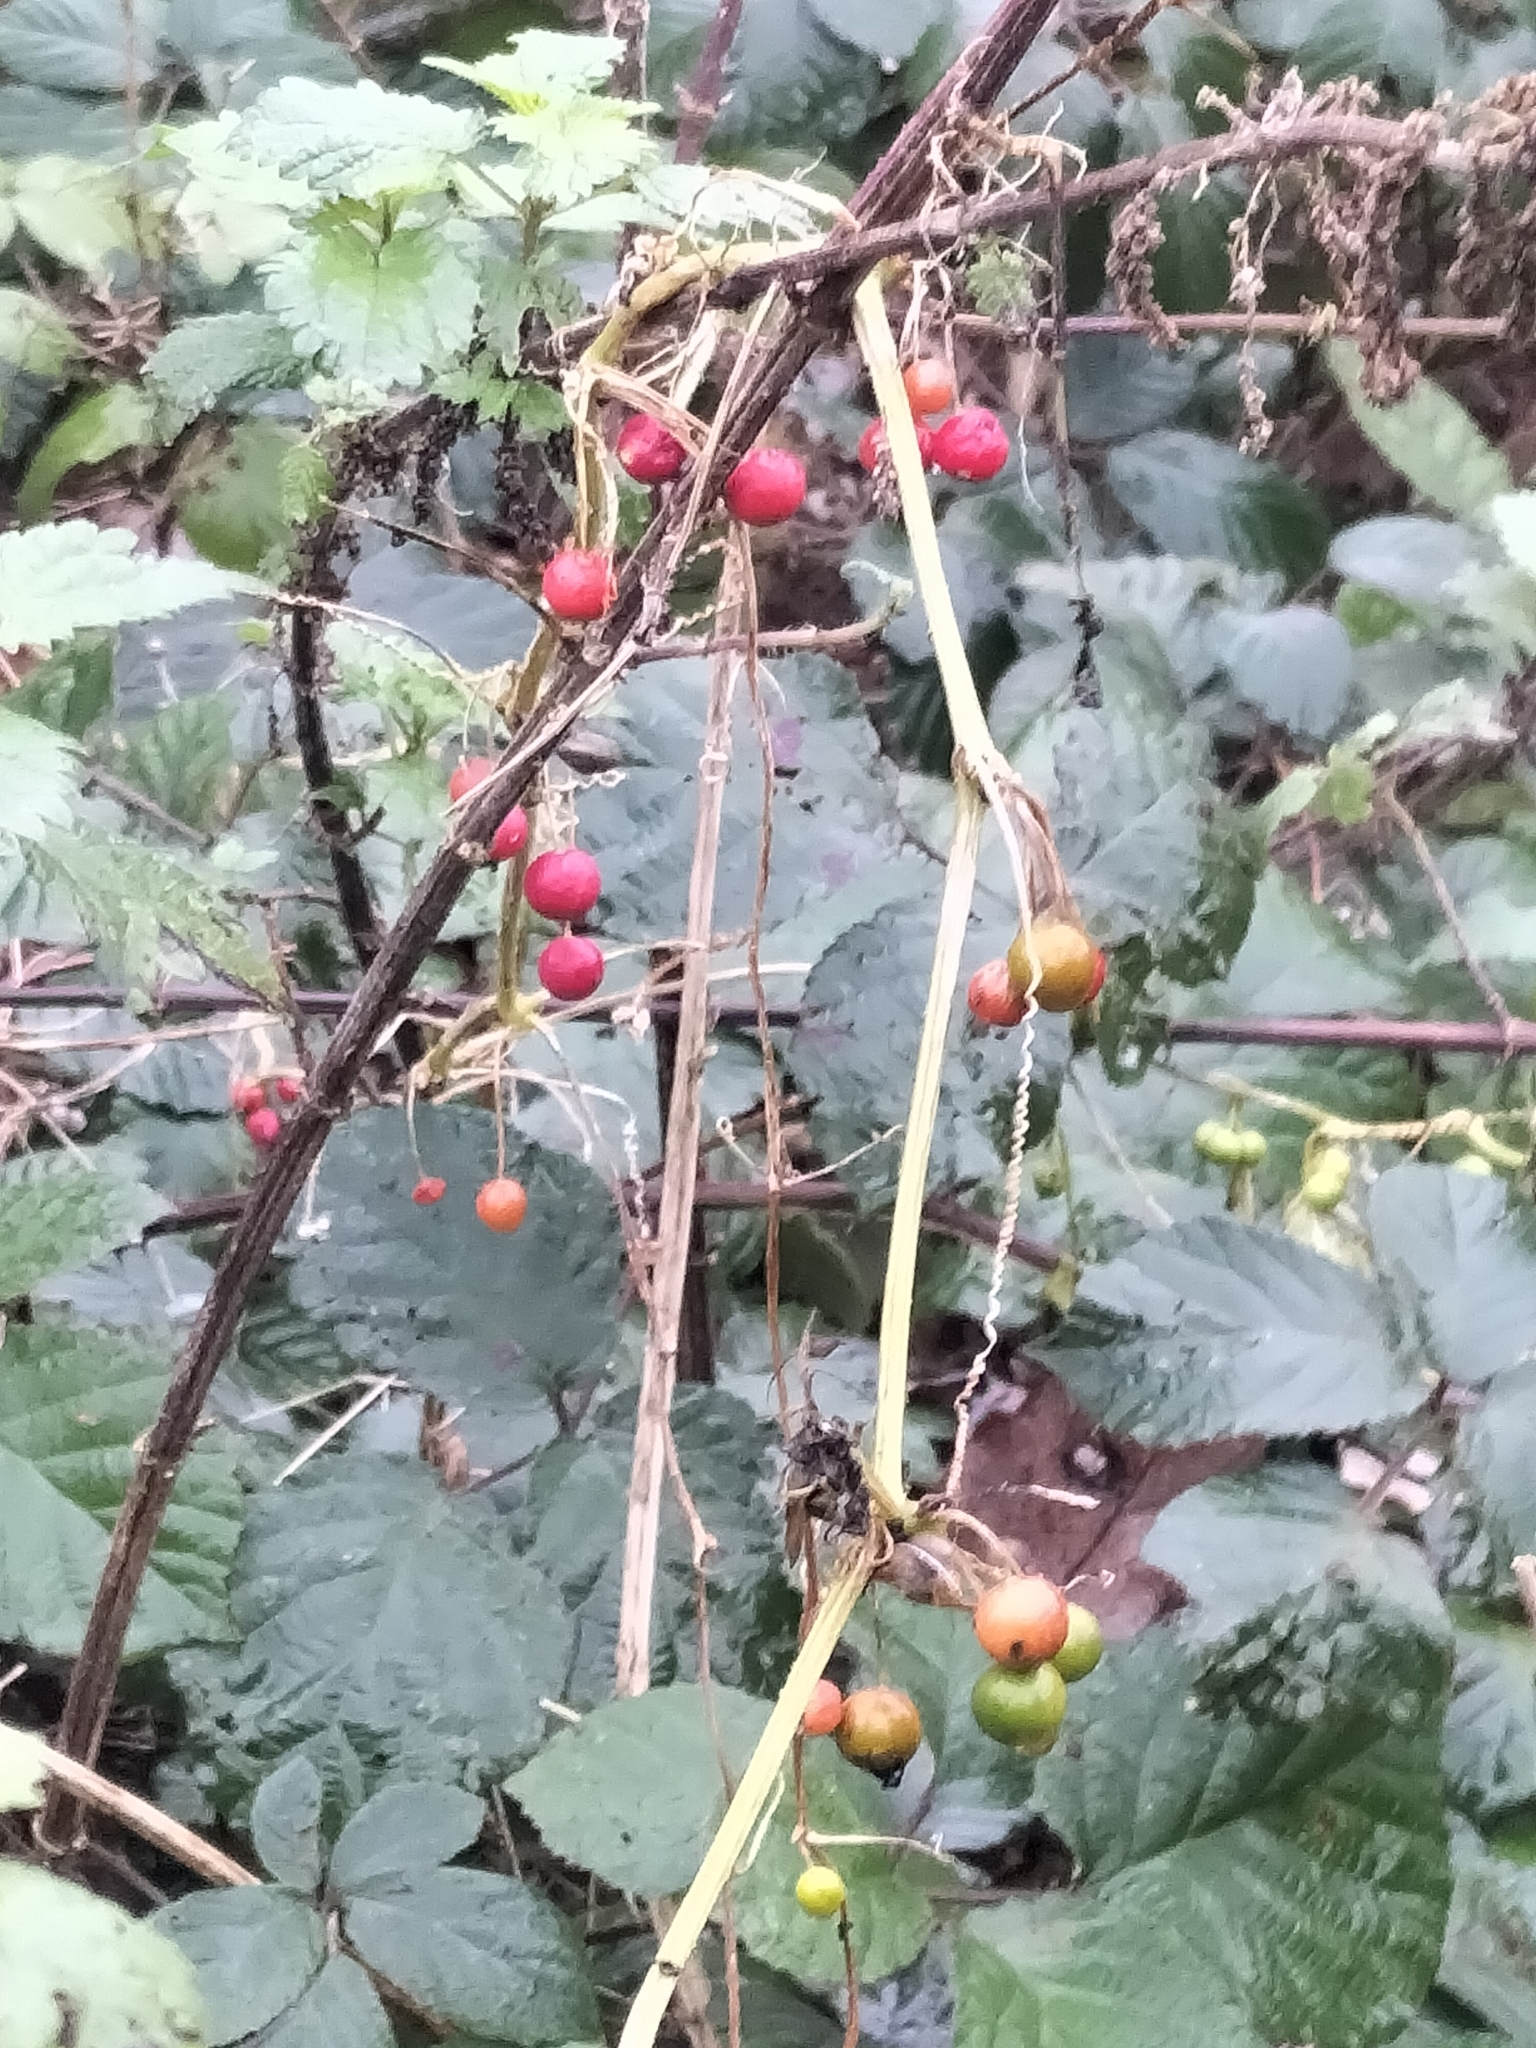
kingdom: Plantae
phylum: Tracheophyta
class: Liliopsida
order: Dioscoreales
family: Dioscoreaceae
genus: Dioscorea
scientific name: Dioscorea communis
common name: Black-bindweed
